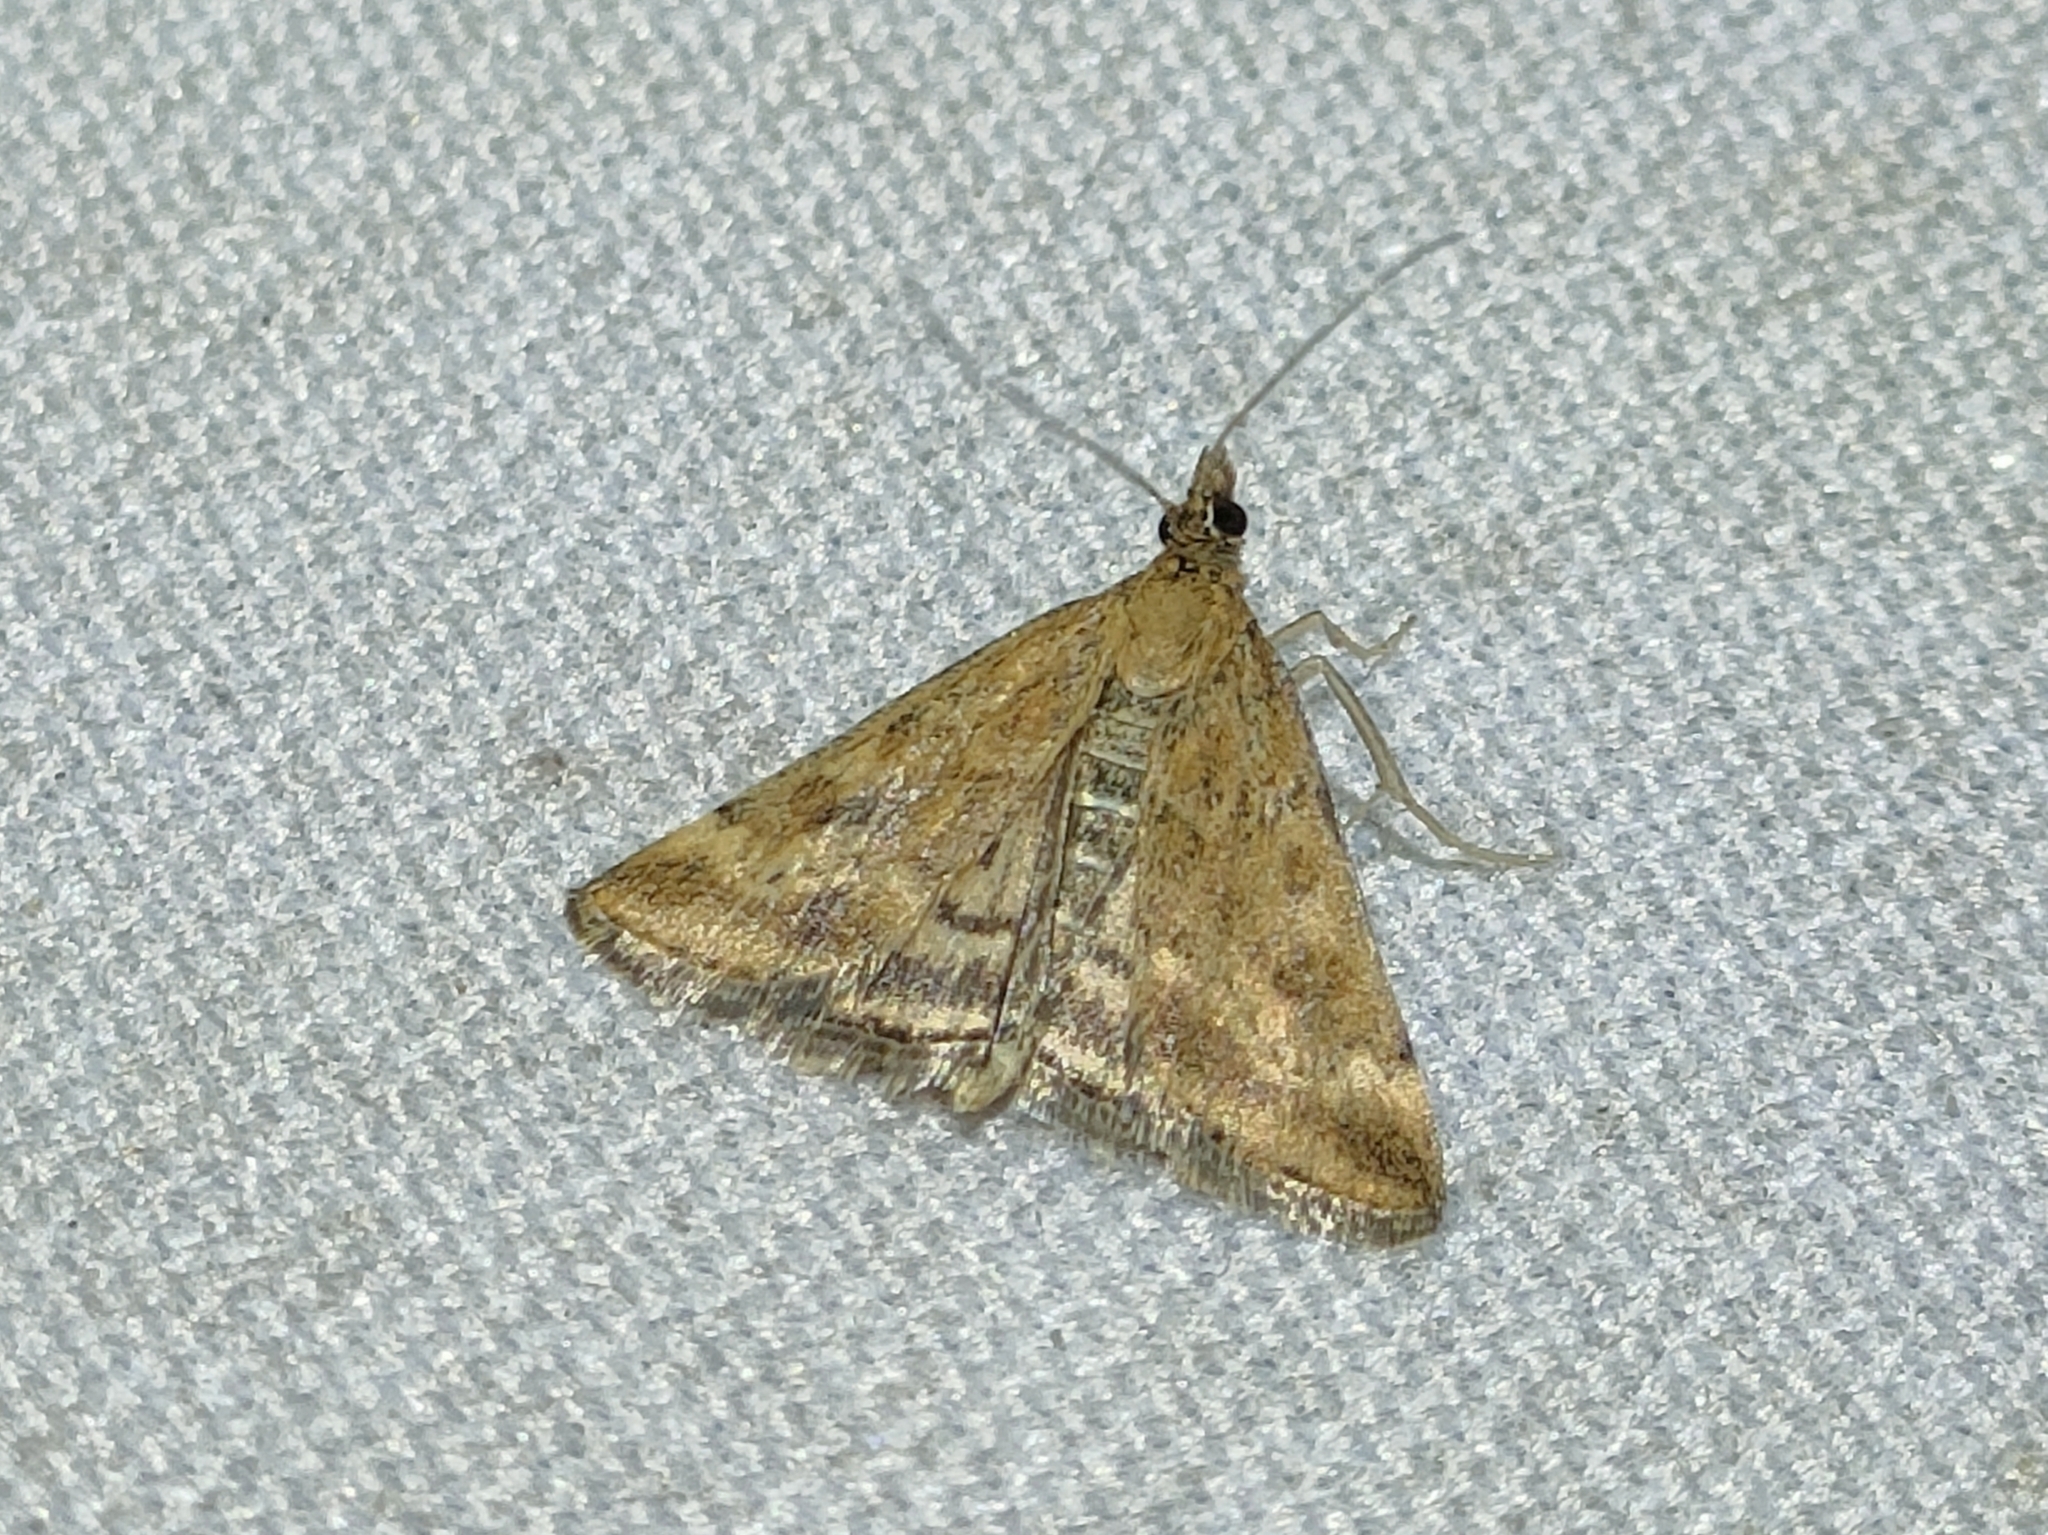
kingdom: Animalia
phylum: Arthropoda
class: Insecta
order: Lepidoptera
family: Crambidae
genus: Pyrausta
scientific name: Pyrausta despicata
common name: Straw-barred pearl
